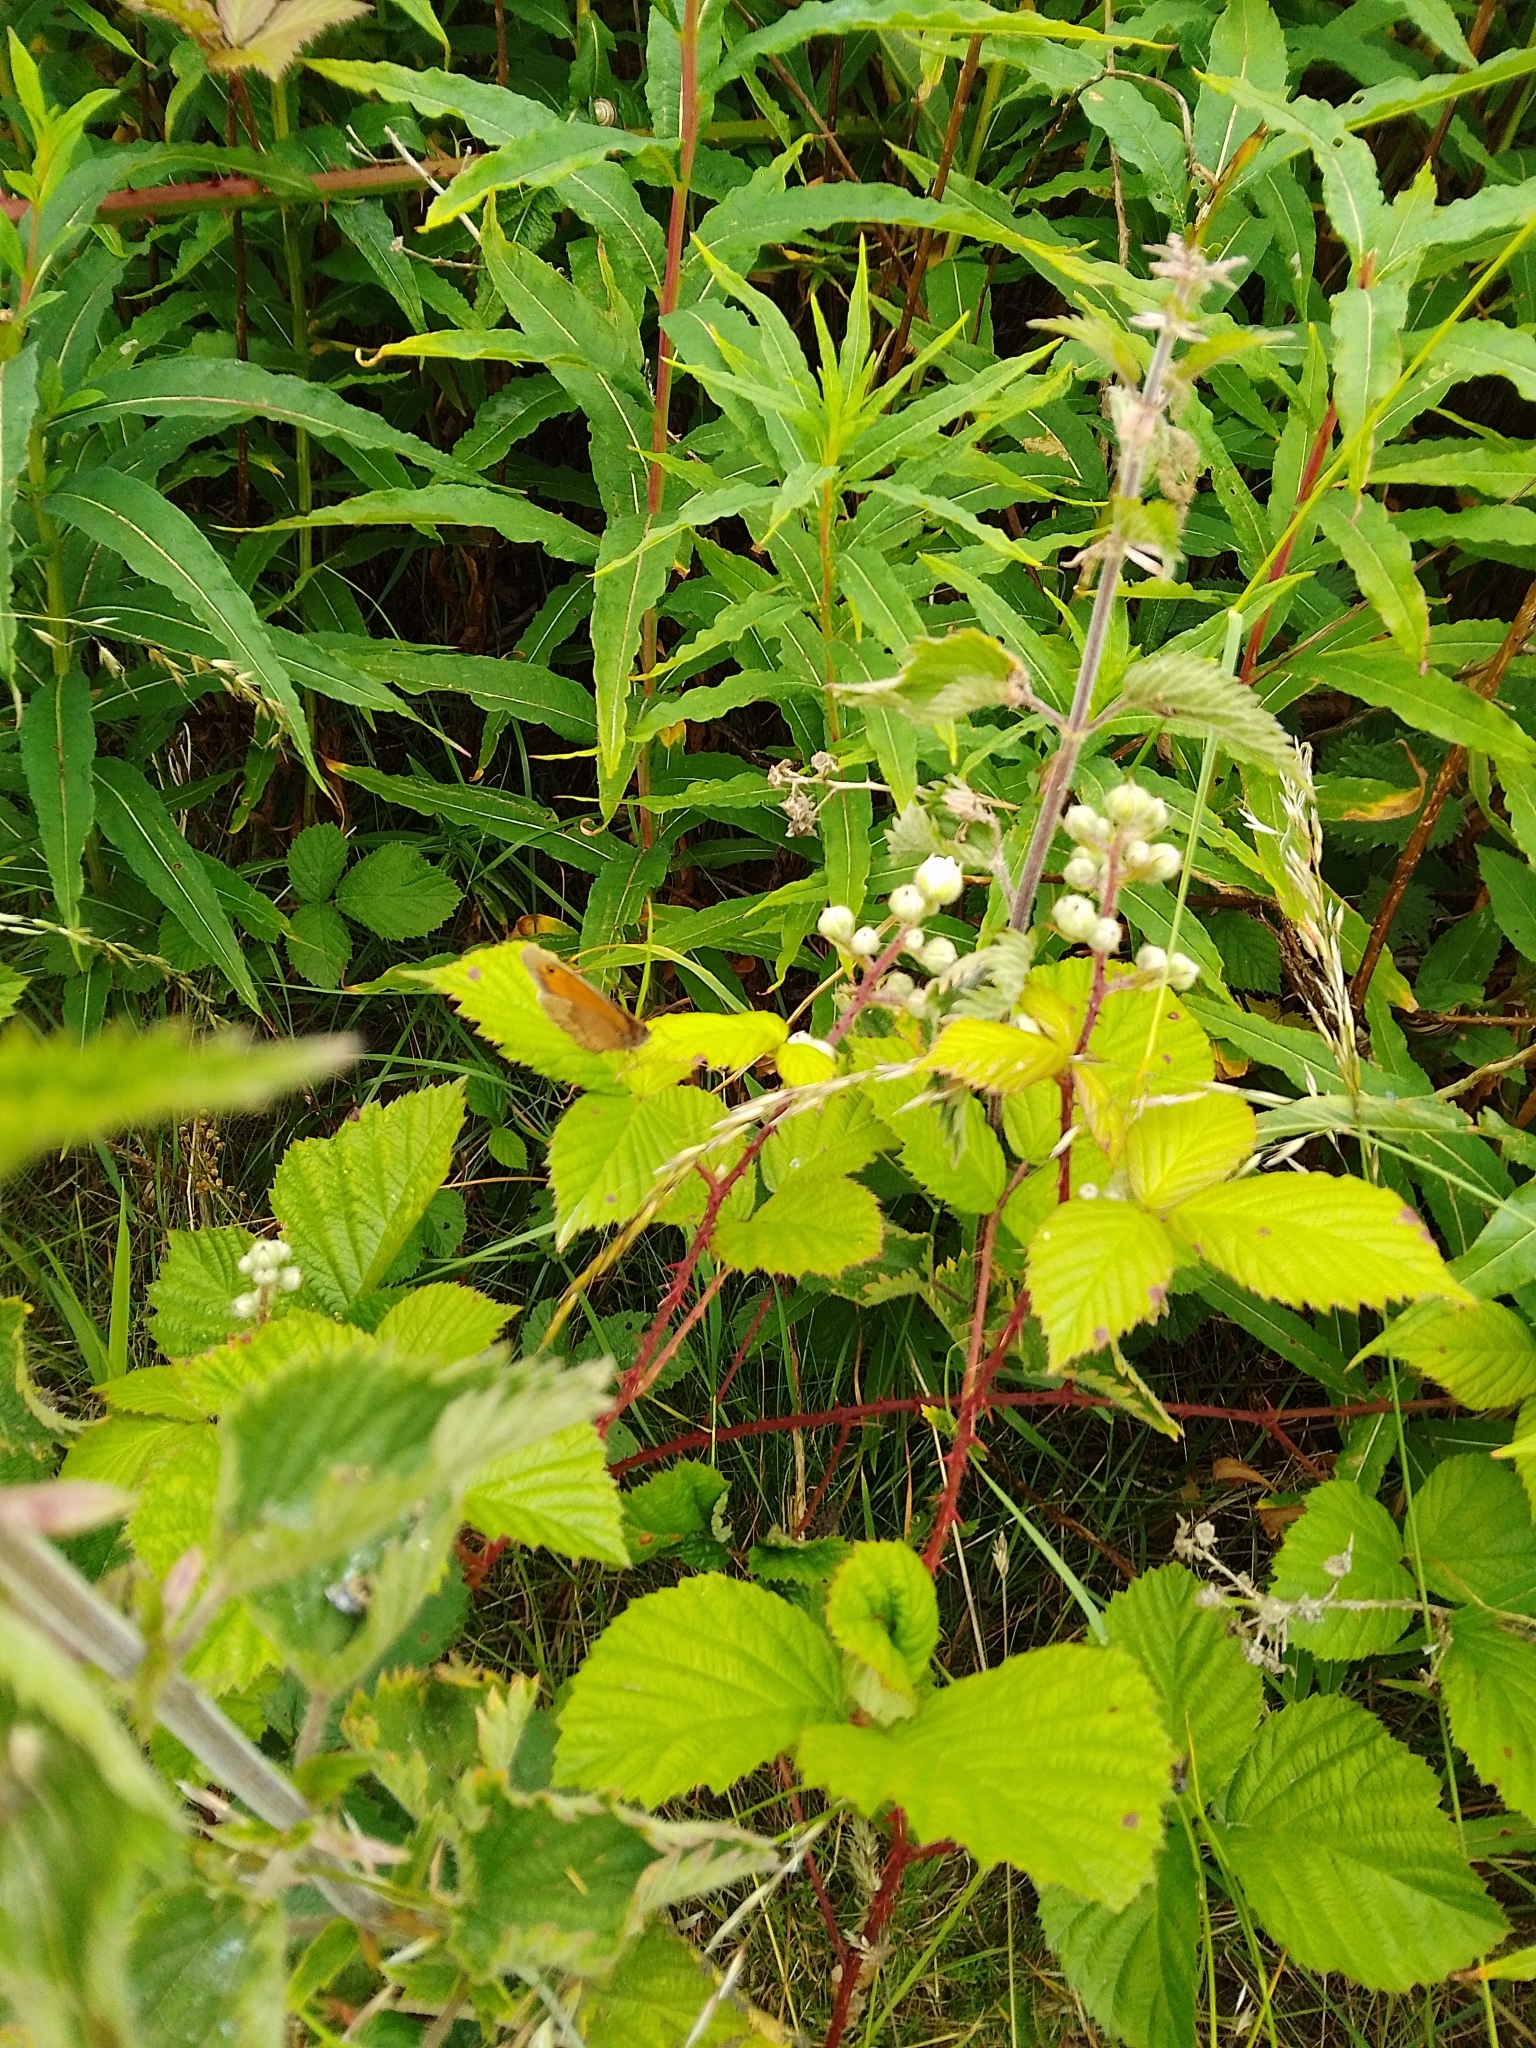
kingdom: Animalia
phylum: Arthropoda
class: Insecta
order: Lepidoptera
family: Nymphalidae
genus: Maniola
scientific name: Maniola jurtina
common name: Meadow brown
